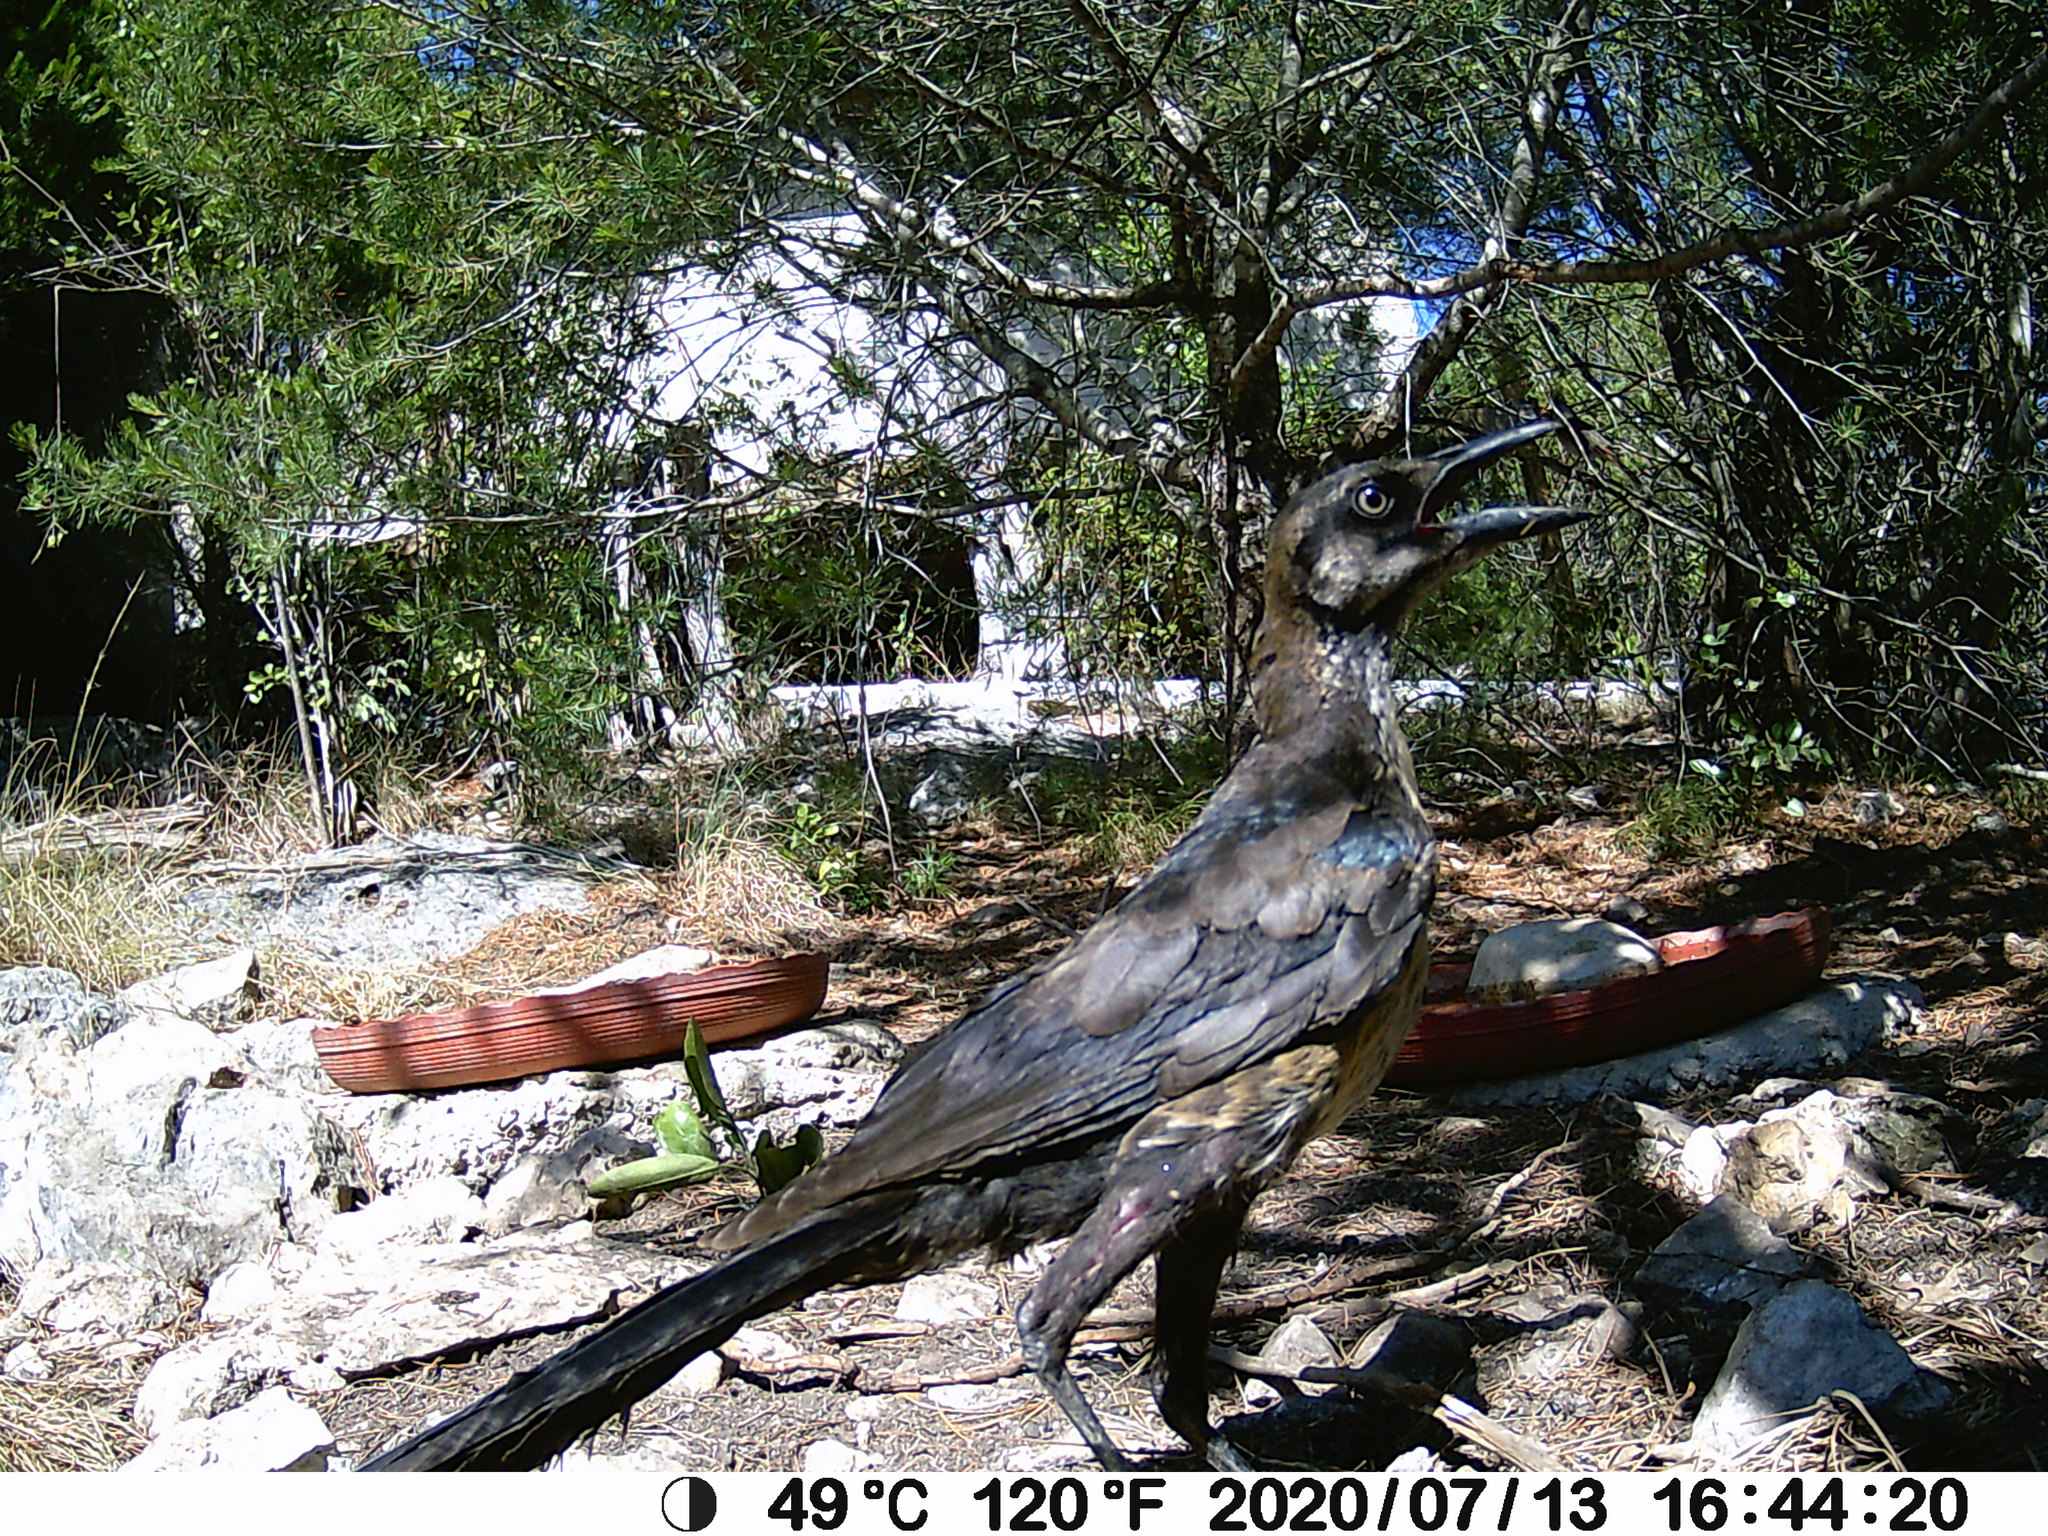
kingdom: Animalia
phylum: Chordata
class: Aves
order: Passeriformes
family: Icteridae
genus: Quiscalus
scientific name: Quiscalus mexicanus
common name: Great-tailed grackle
